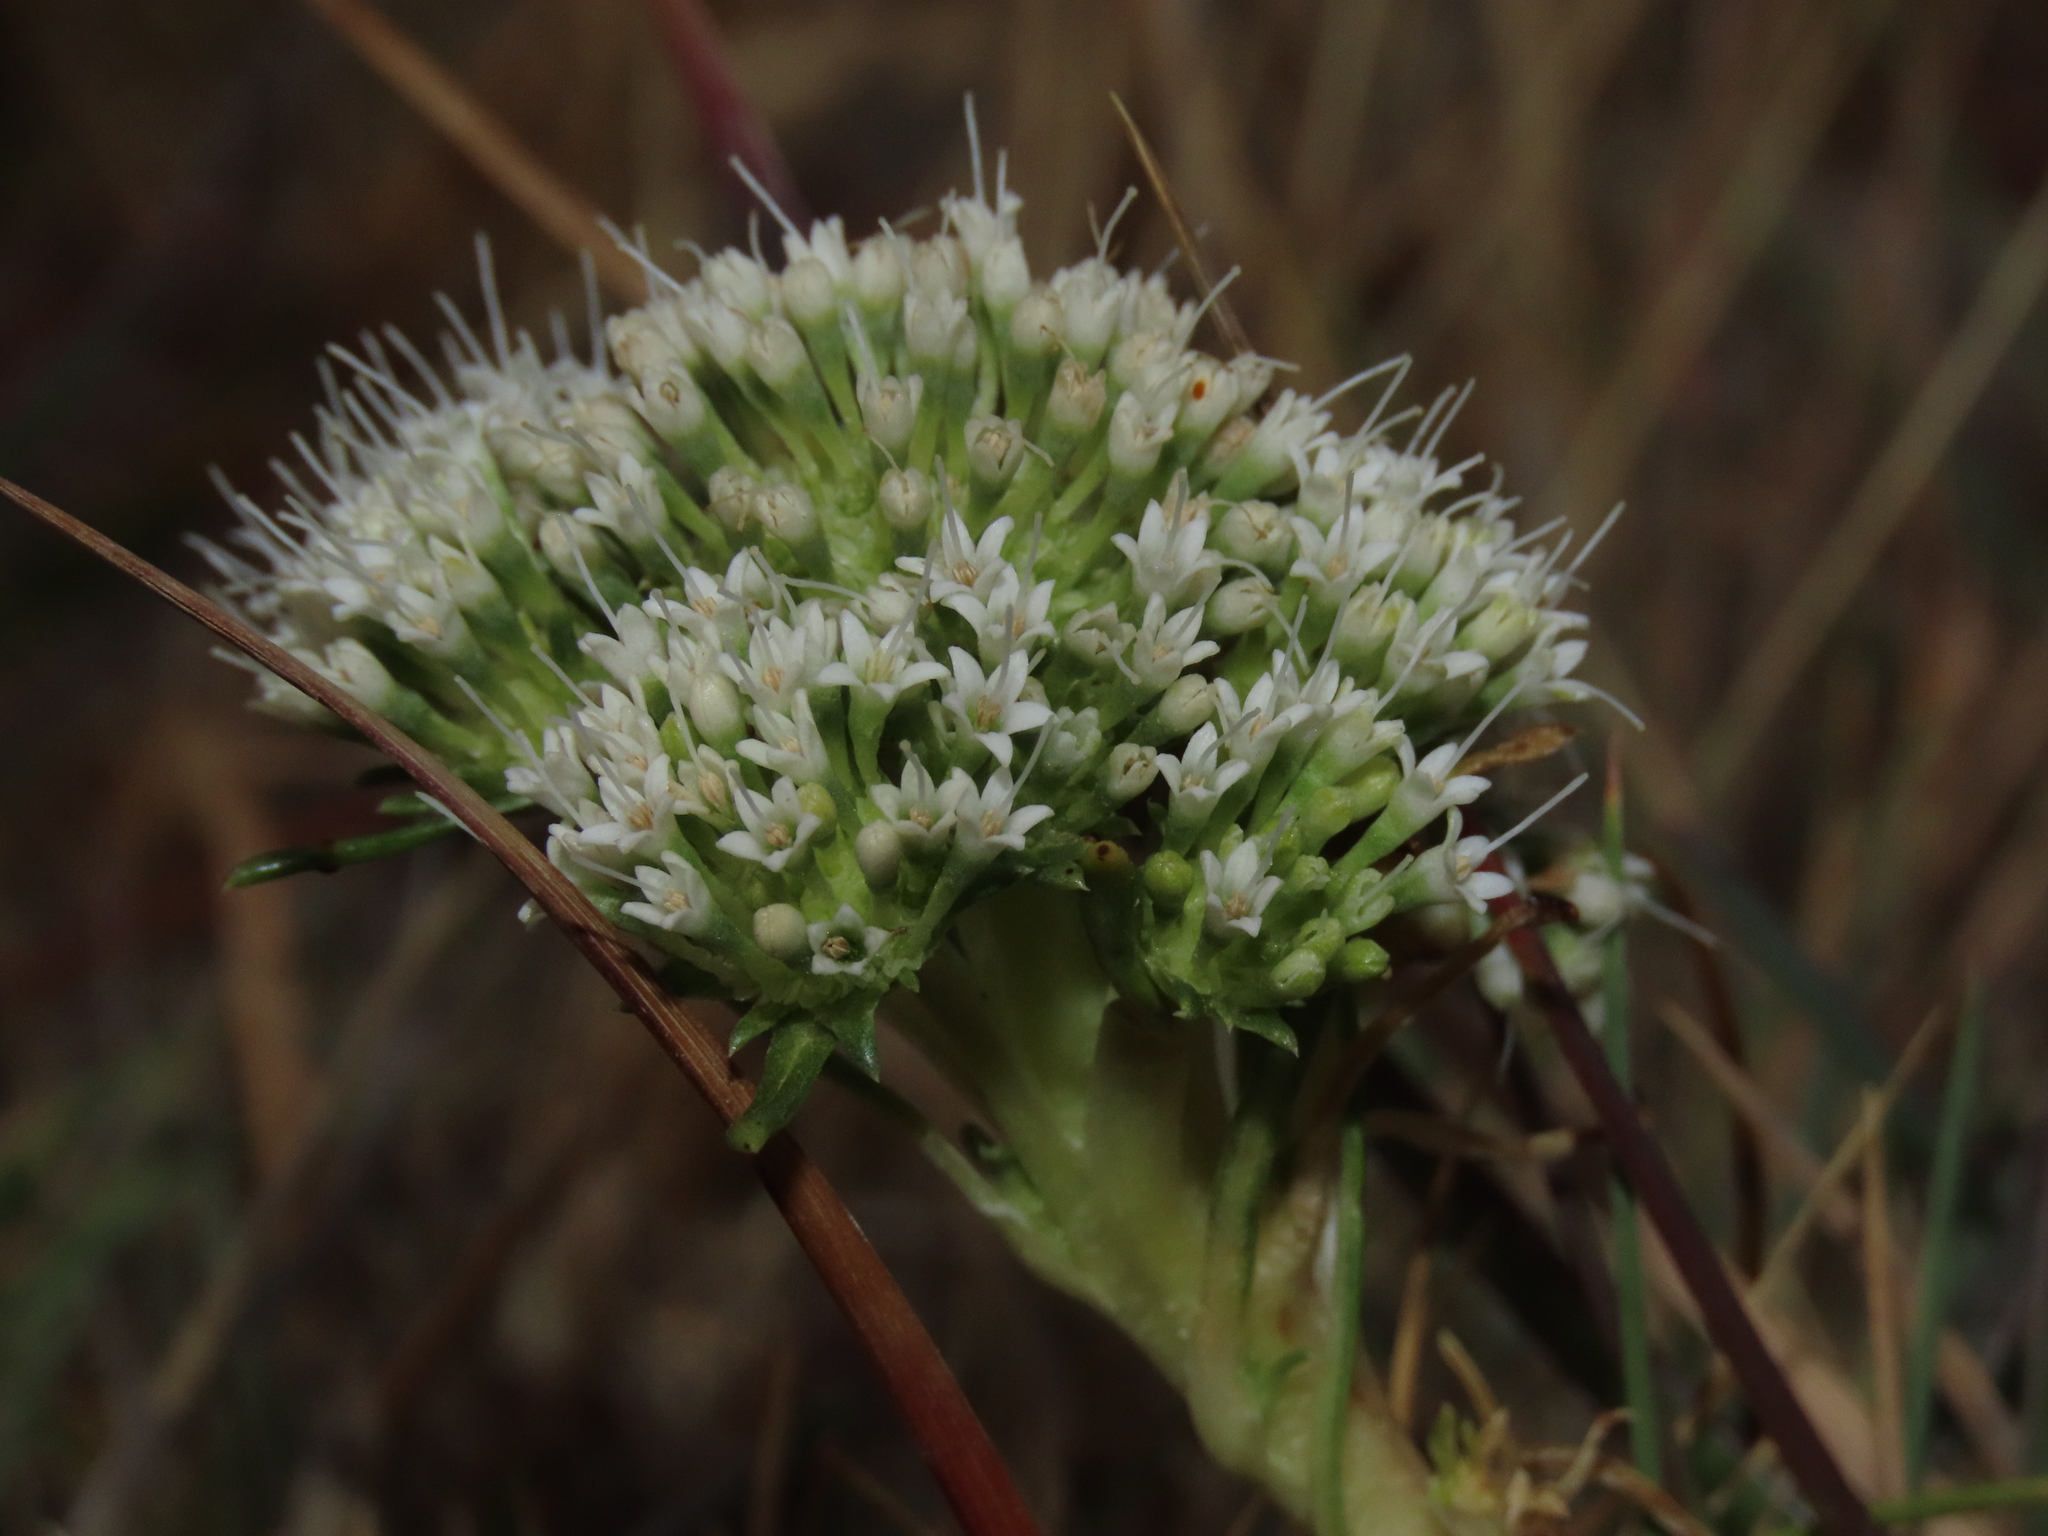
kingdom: Plantae
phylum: Tracheophyta
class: Magnoliopsida
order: Asterales
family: Calyceraceae
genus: Gamocarpha
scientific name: Gamocarpha australis
